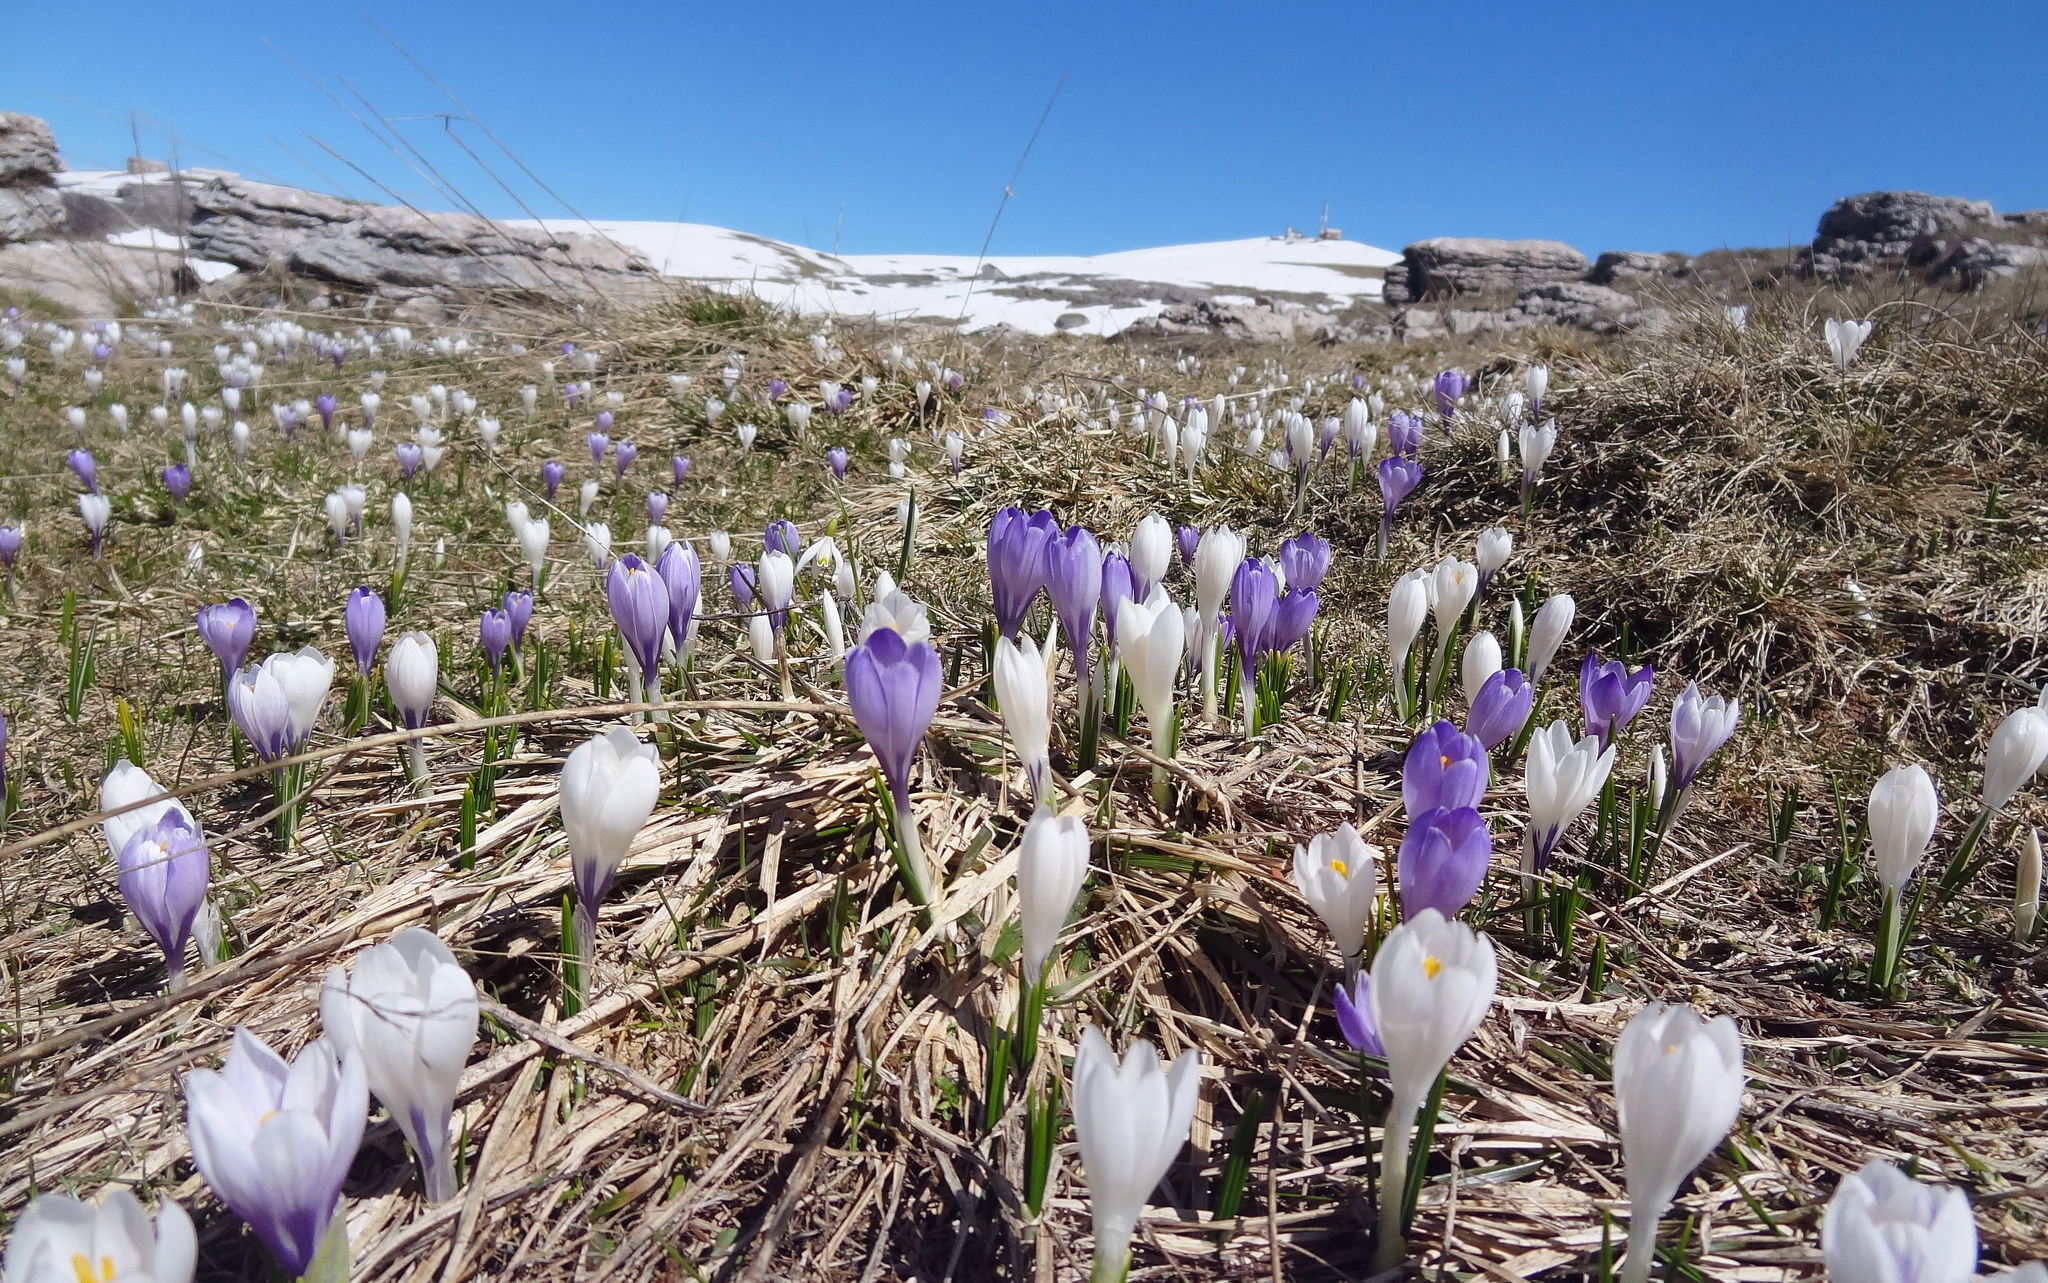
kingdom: Plantae
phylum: Tracheophyta
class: Liliopsida
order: Asparagales
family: Iridaceae
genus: Crocus
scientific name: Crocus vernus
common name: Spring crocus
